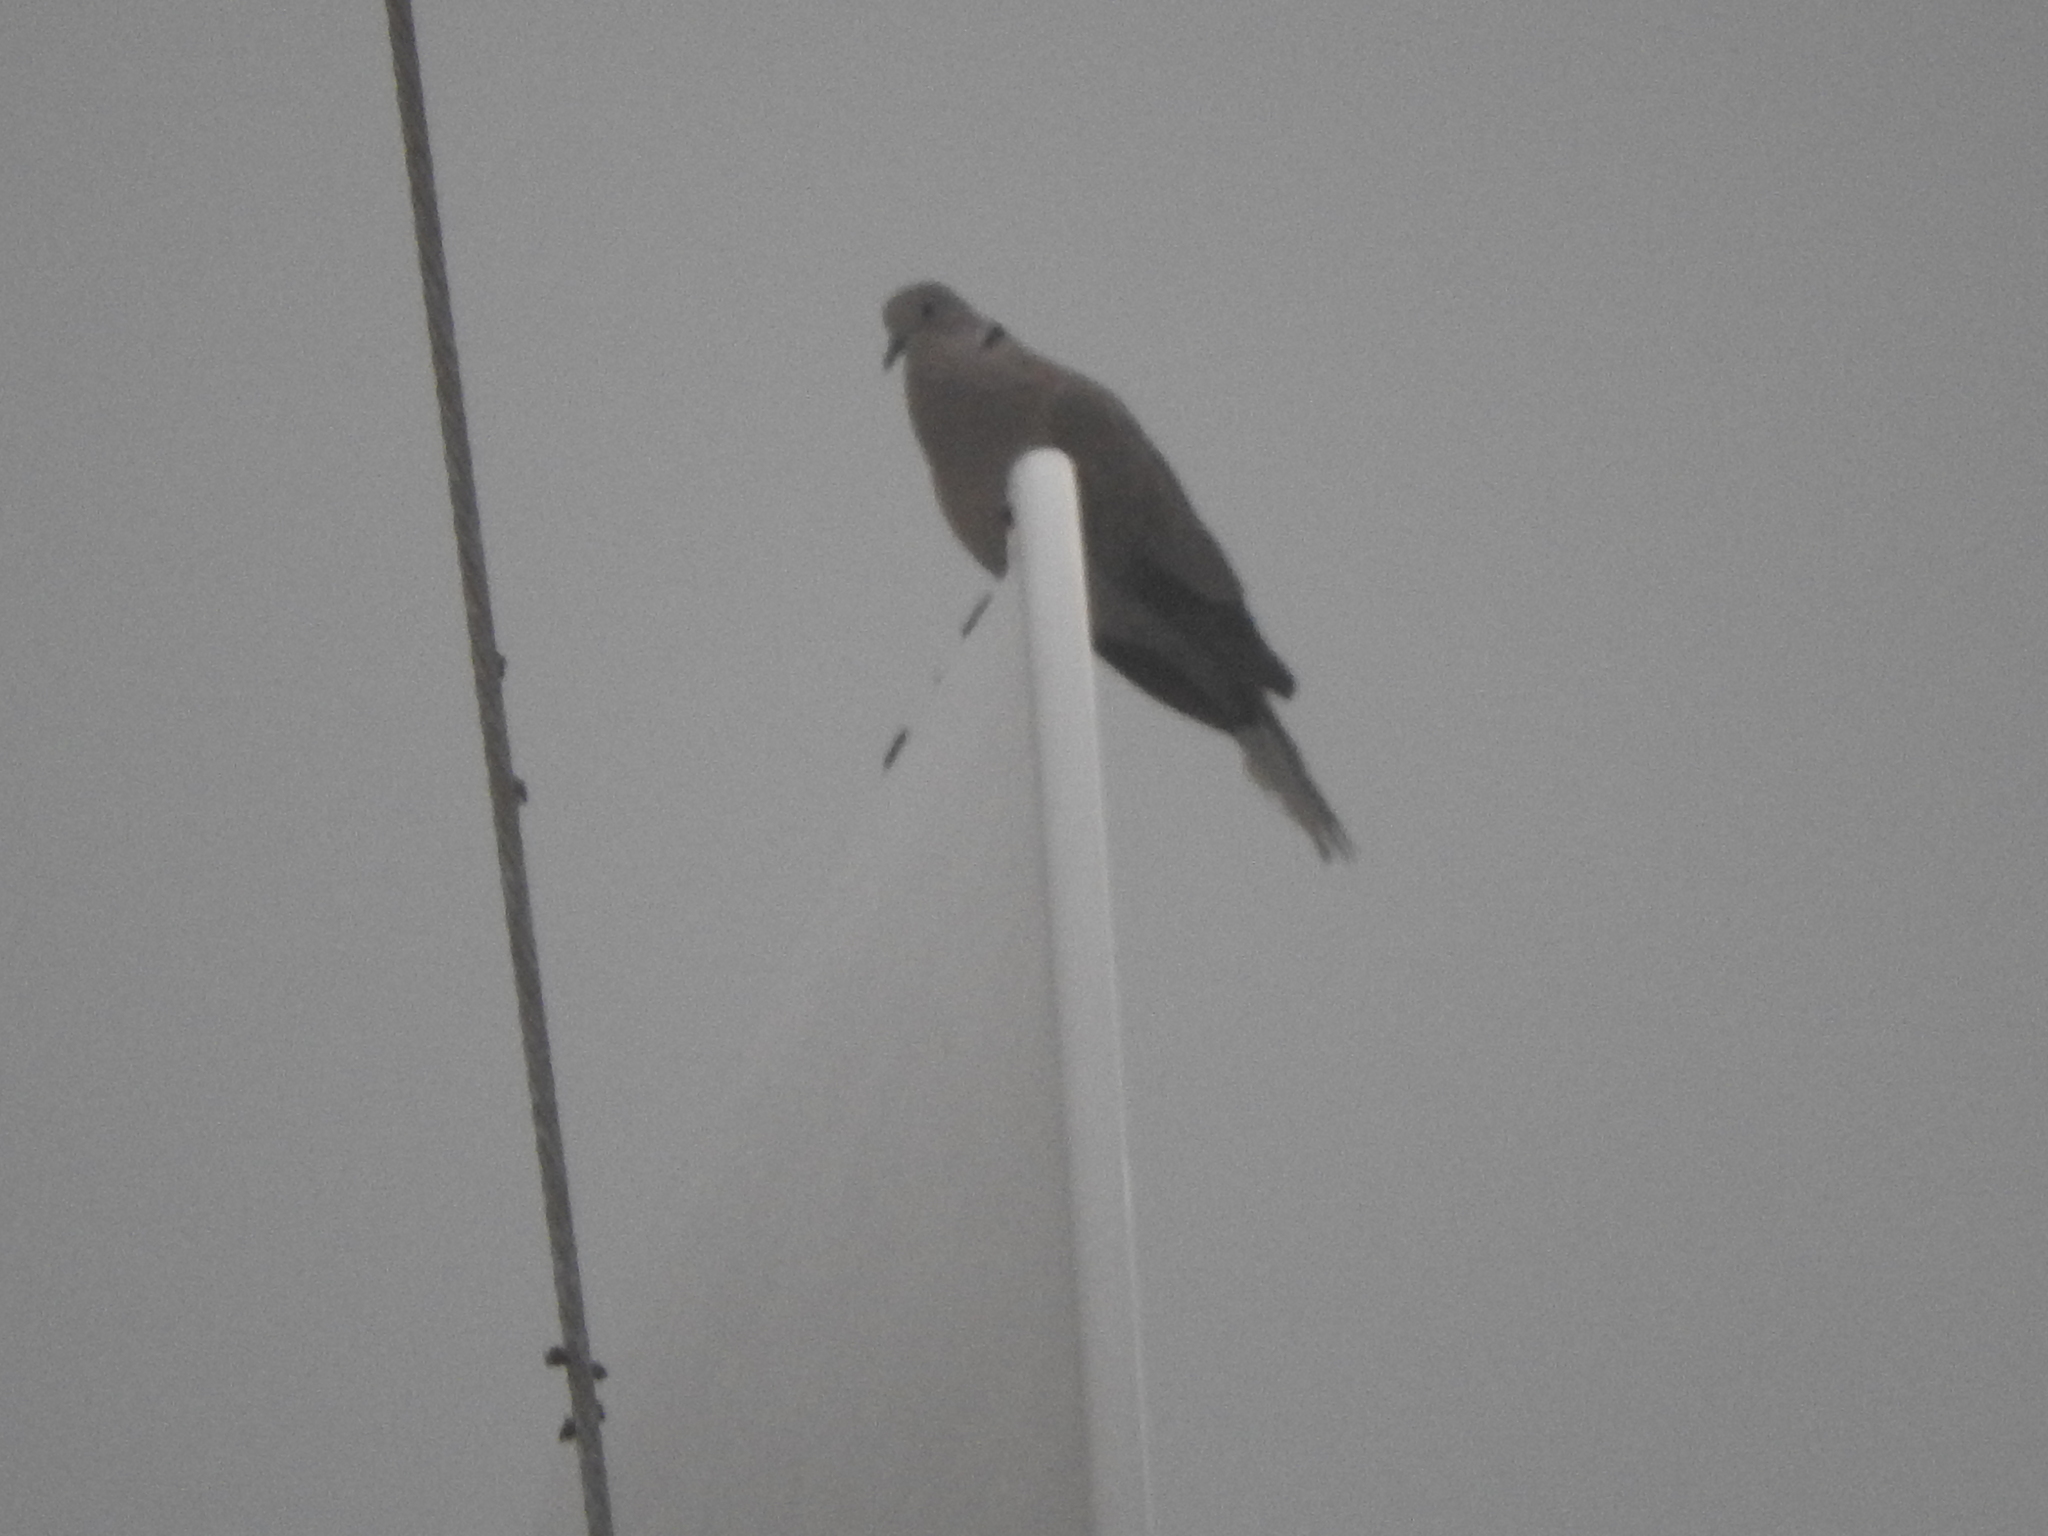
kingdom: Animalia
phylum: Chordata
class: Aves
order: Columbiformes
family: Columbidae
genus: Streptopelia
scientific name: Streptopelia decaocto
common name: Eurasian collared dove
